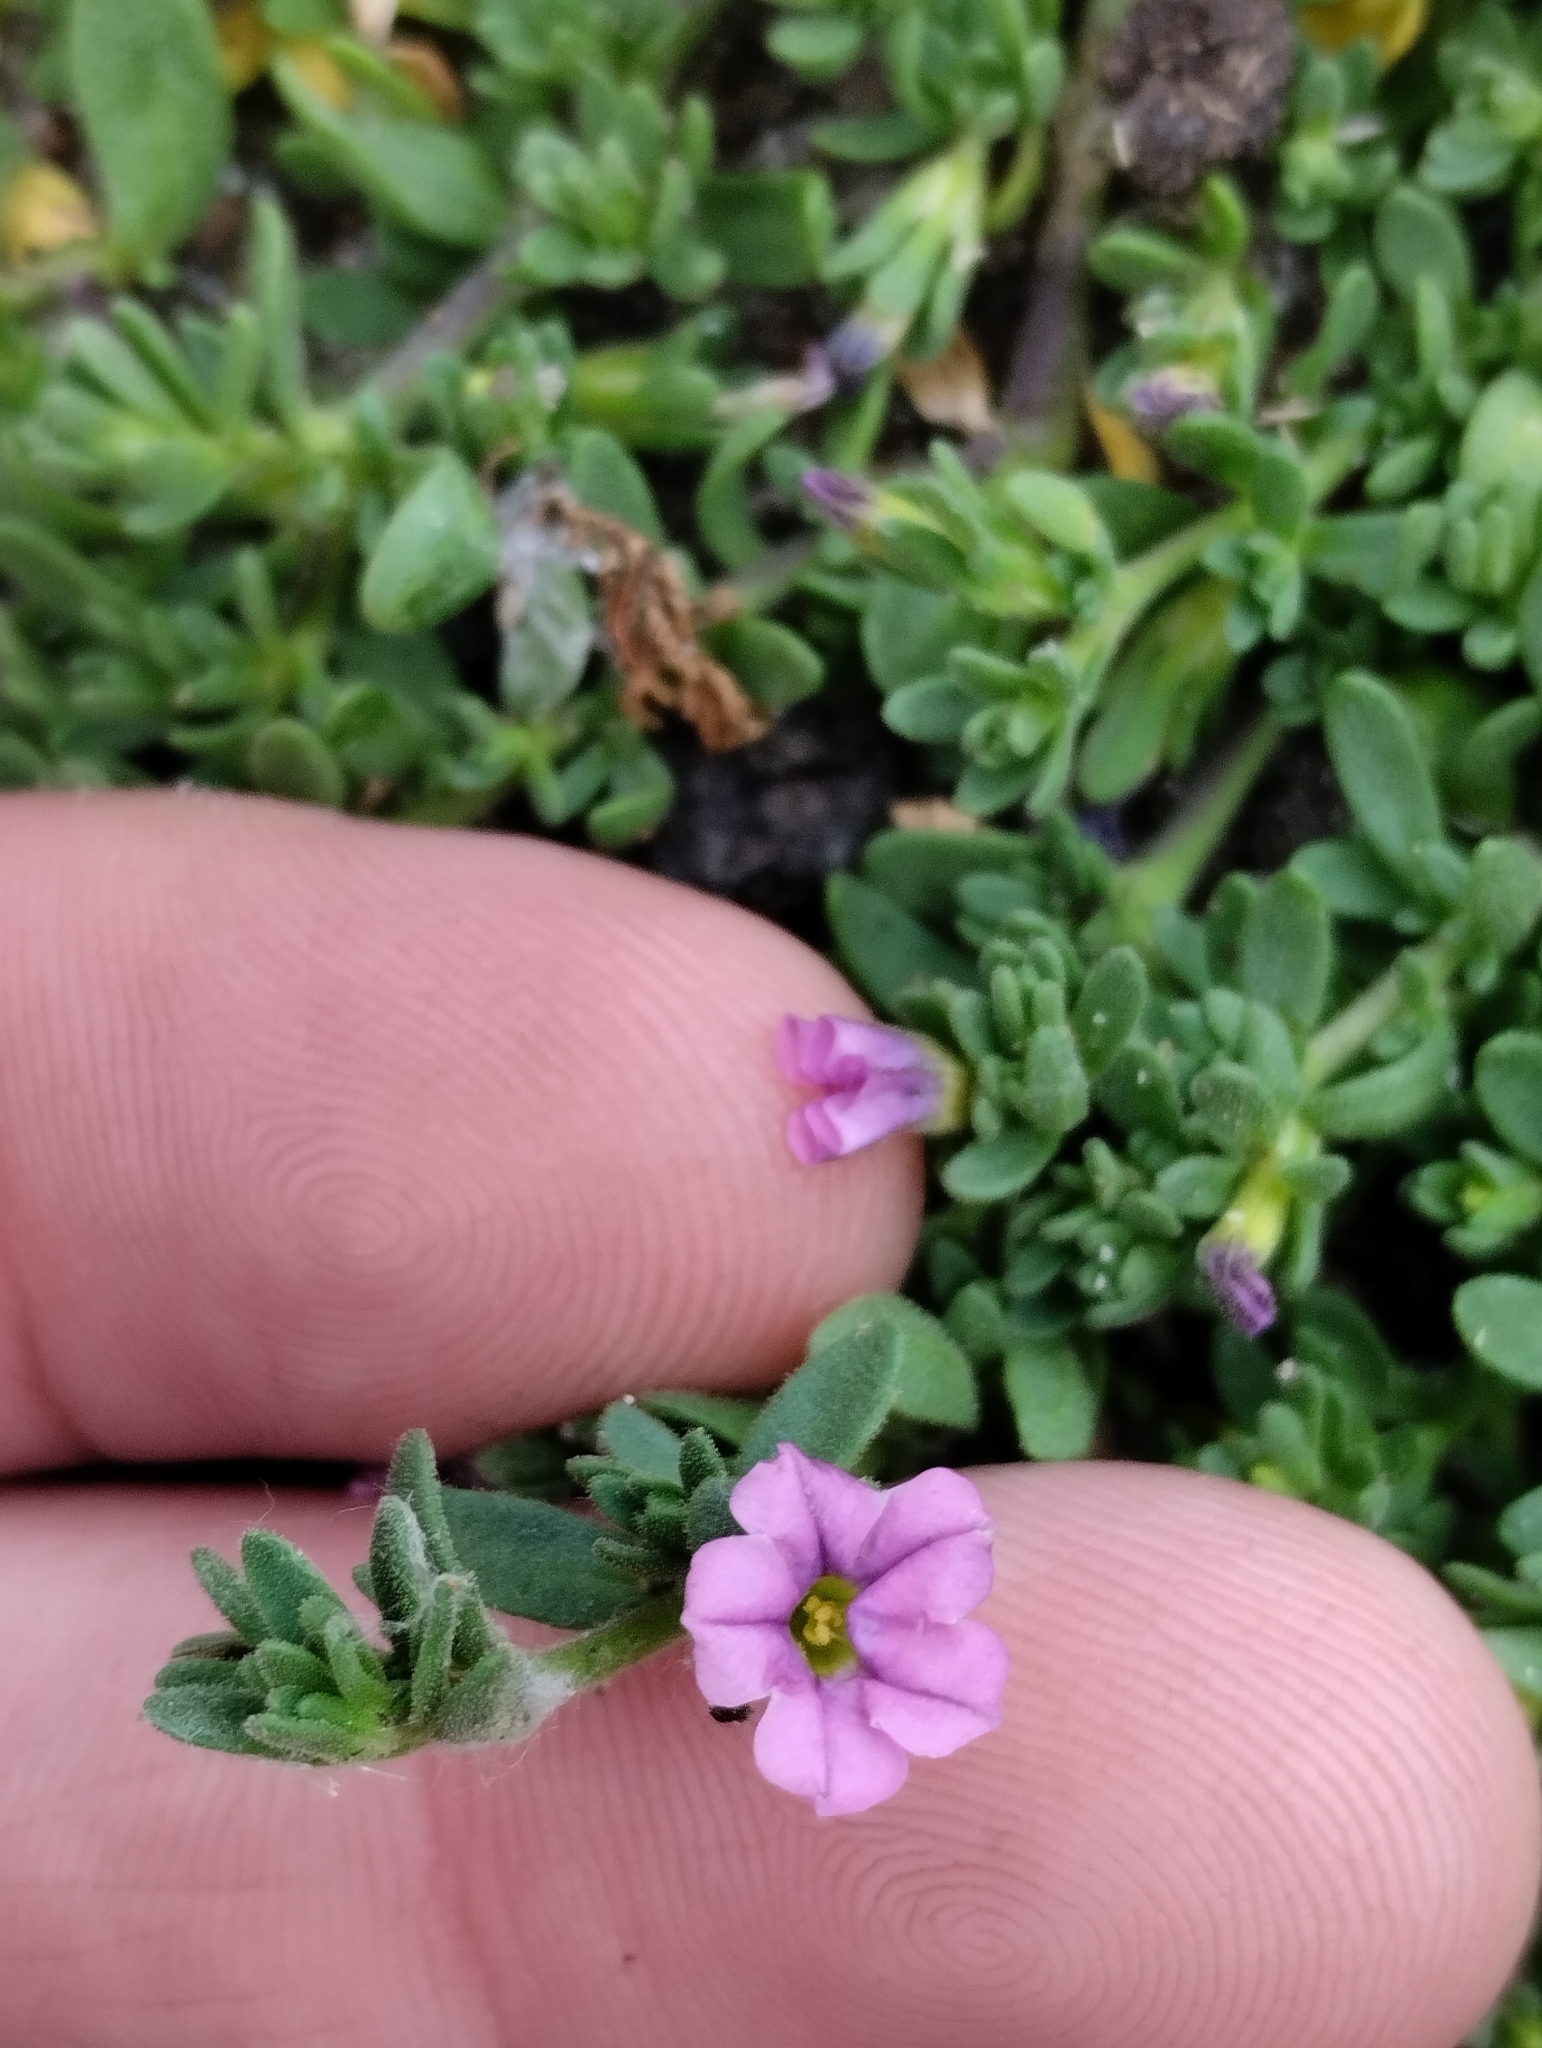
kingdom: Plantae
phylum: Tracheophyta
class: Magnoliopsida
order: Solanales
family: Solanaceae
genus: Calibrachoa
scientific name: Calibrachoa parviflora
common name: Seaside petunia
